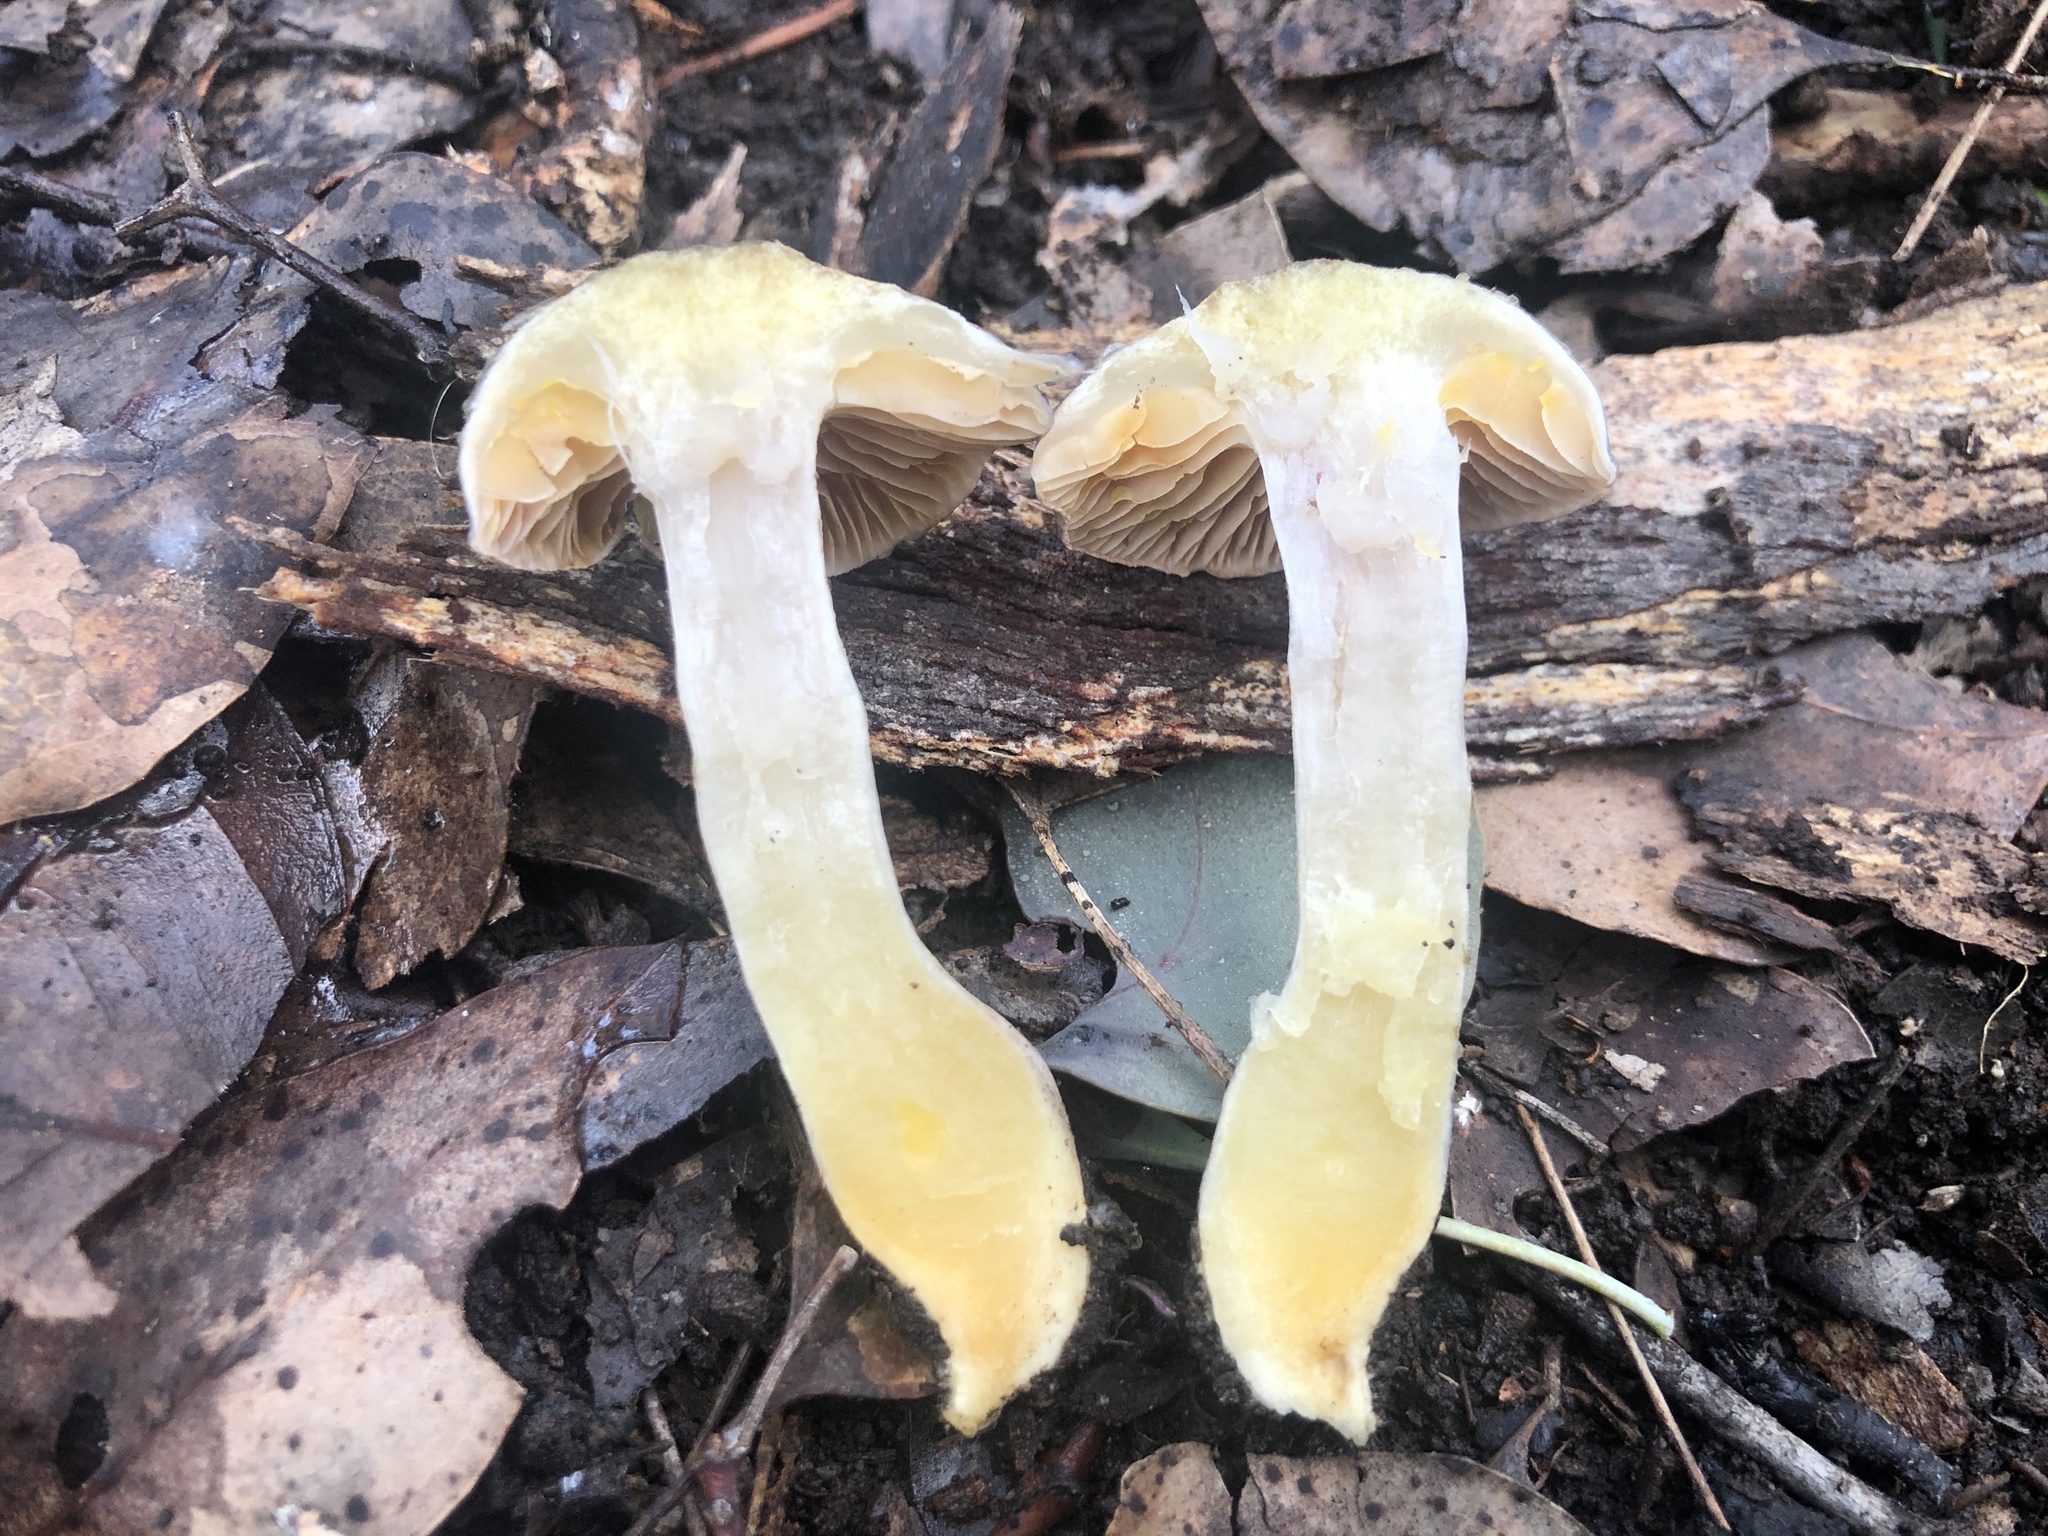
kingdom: Fungi
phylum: Basidiomycota
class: Agaricomycetes
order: Agaricales
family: Cortinariaceae
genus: Cortinarius
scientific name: Cortinarius rotundisporus
